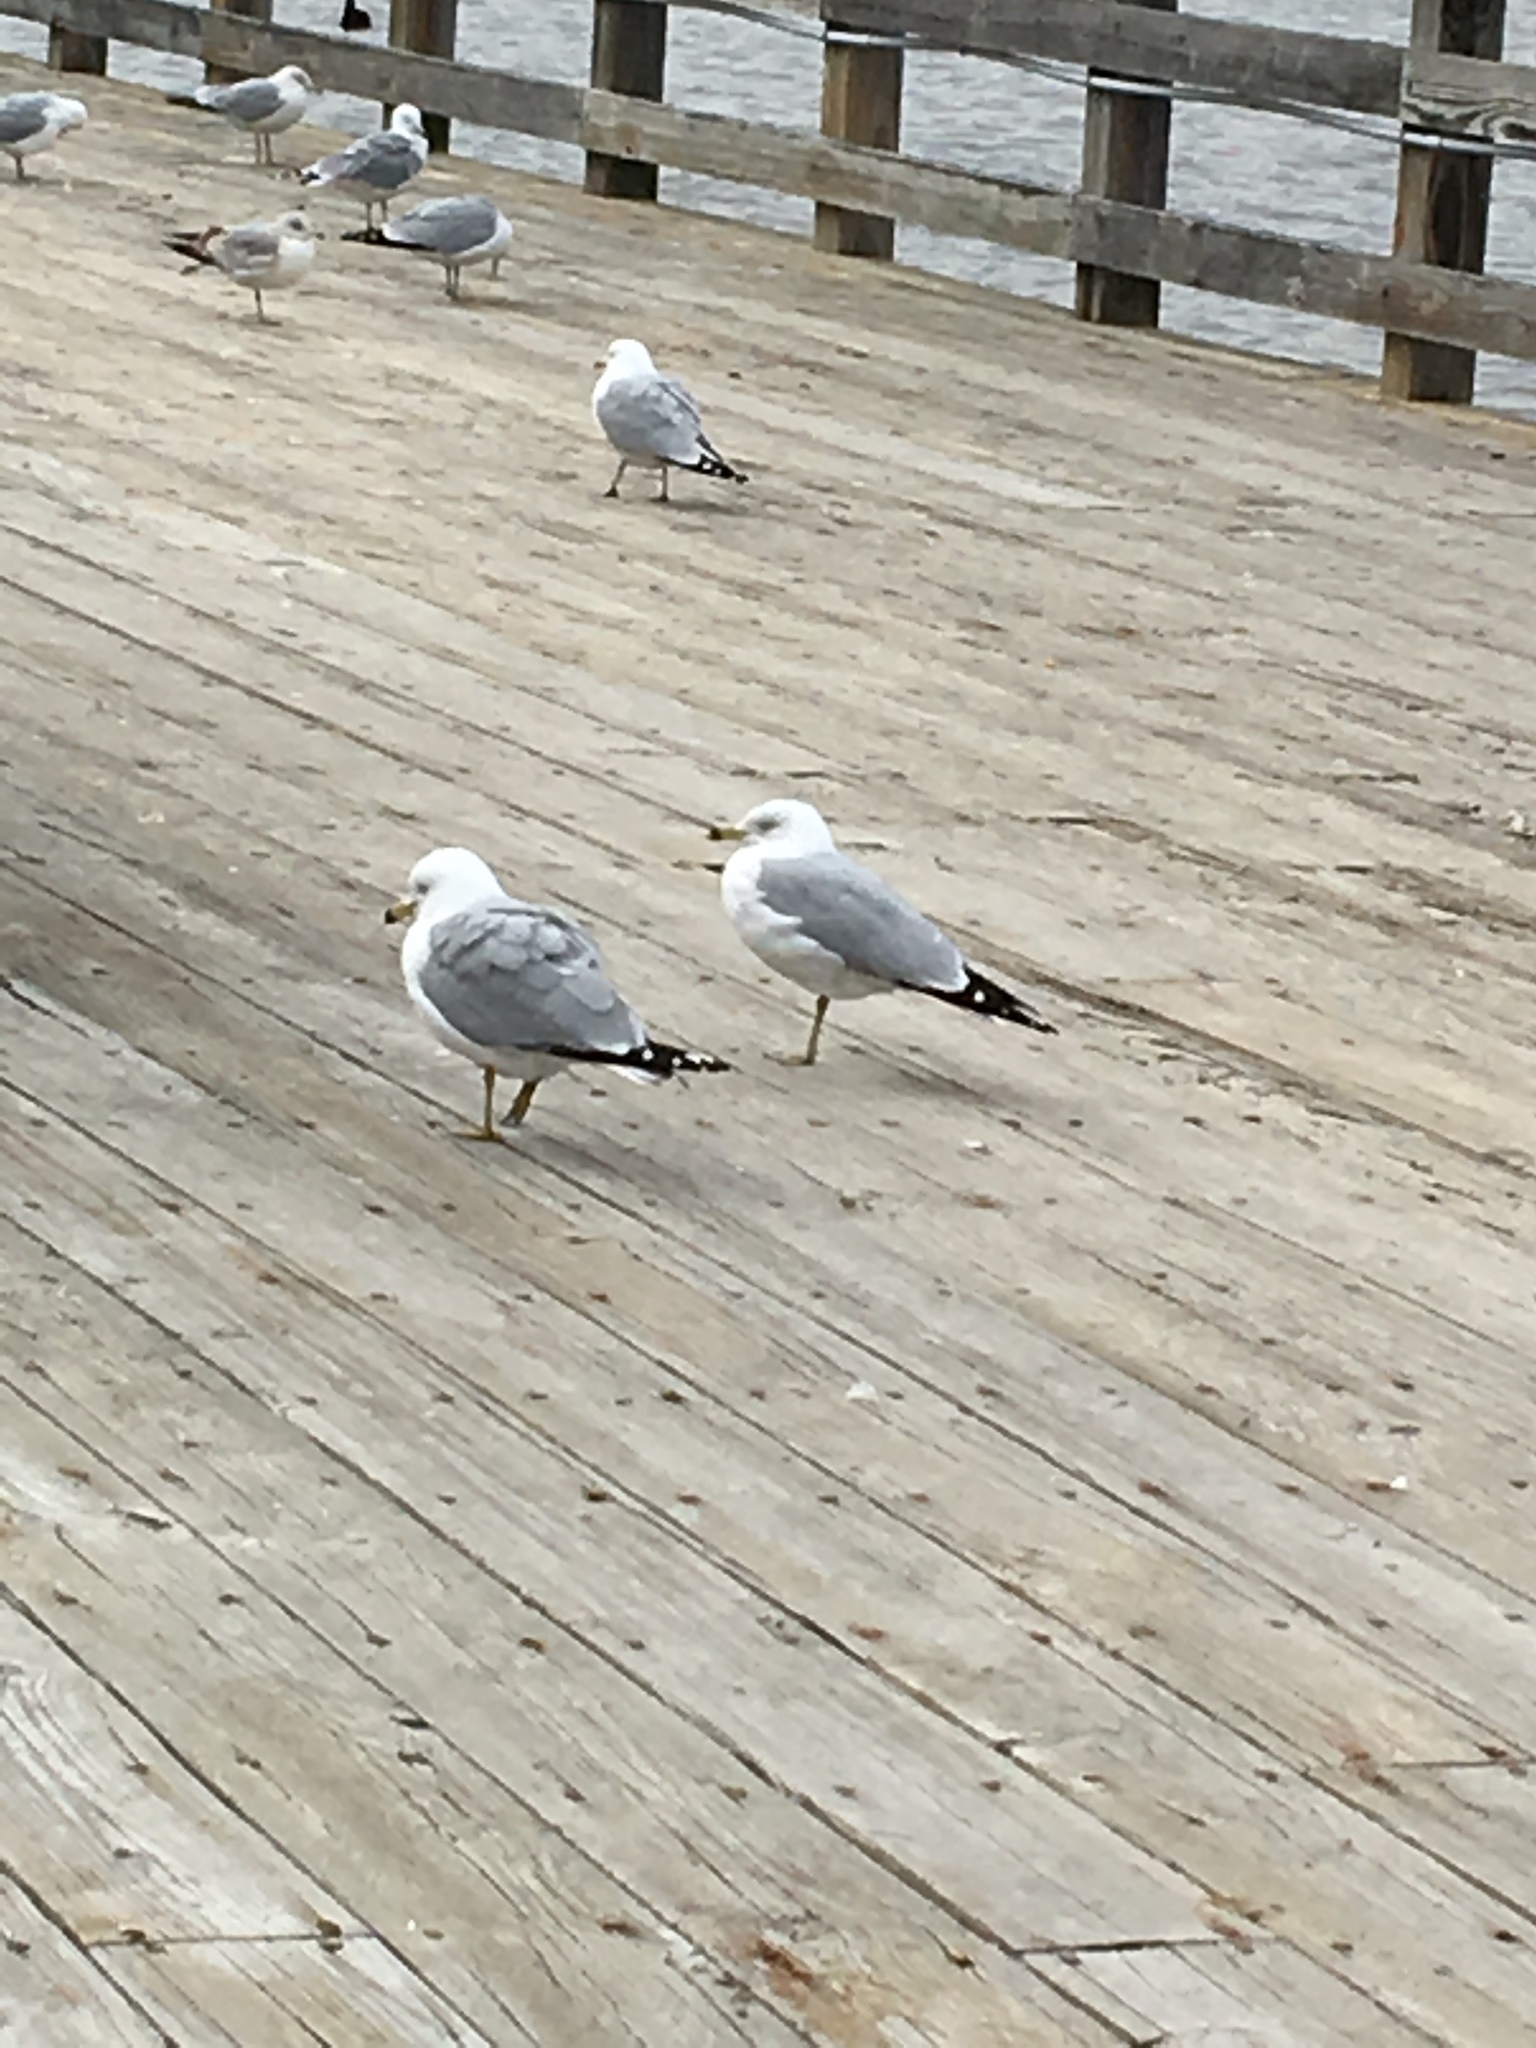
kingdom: Animalia
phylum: Chordata
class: Aves
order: Charadriiformes
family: Laridae
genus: Larus
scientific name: Larus delawarensis
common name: Ring-billed gull
